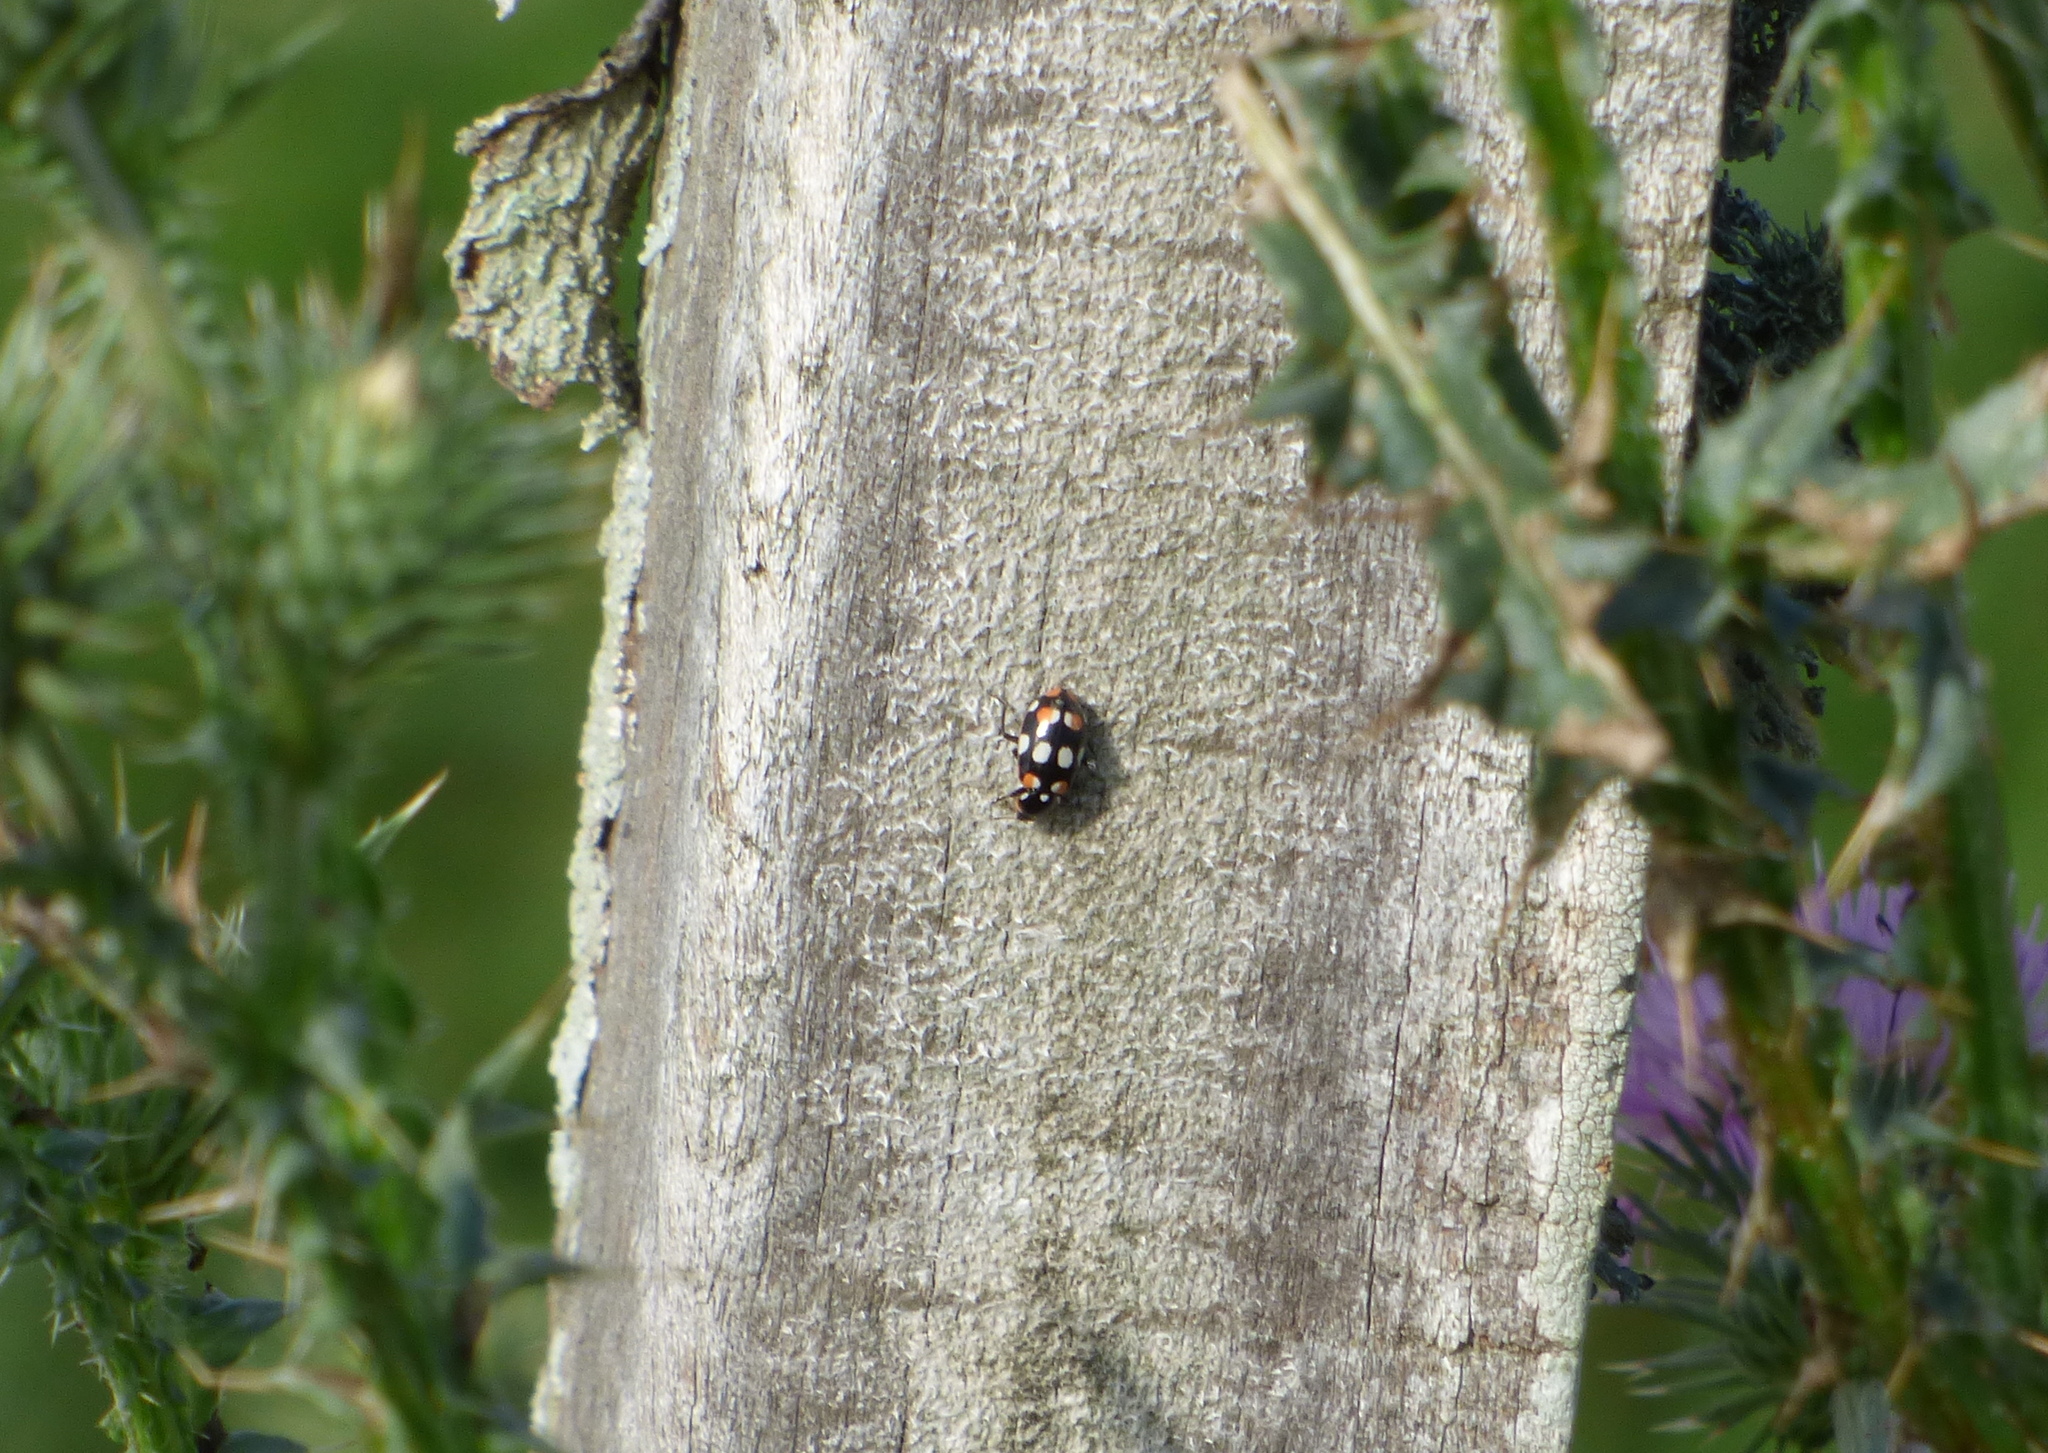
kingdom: Animalia
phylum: Arthropoda
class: Insecta
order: Coleoptera
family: Coccinellidae
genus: Eriopis
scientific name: Eriopis connexa
